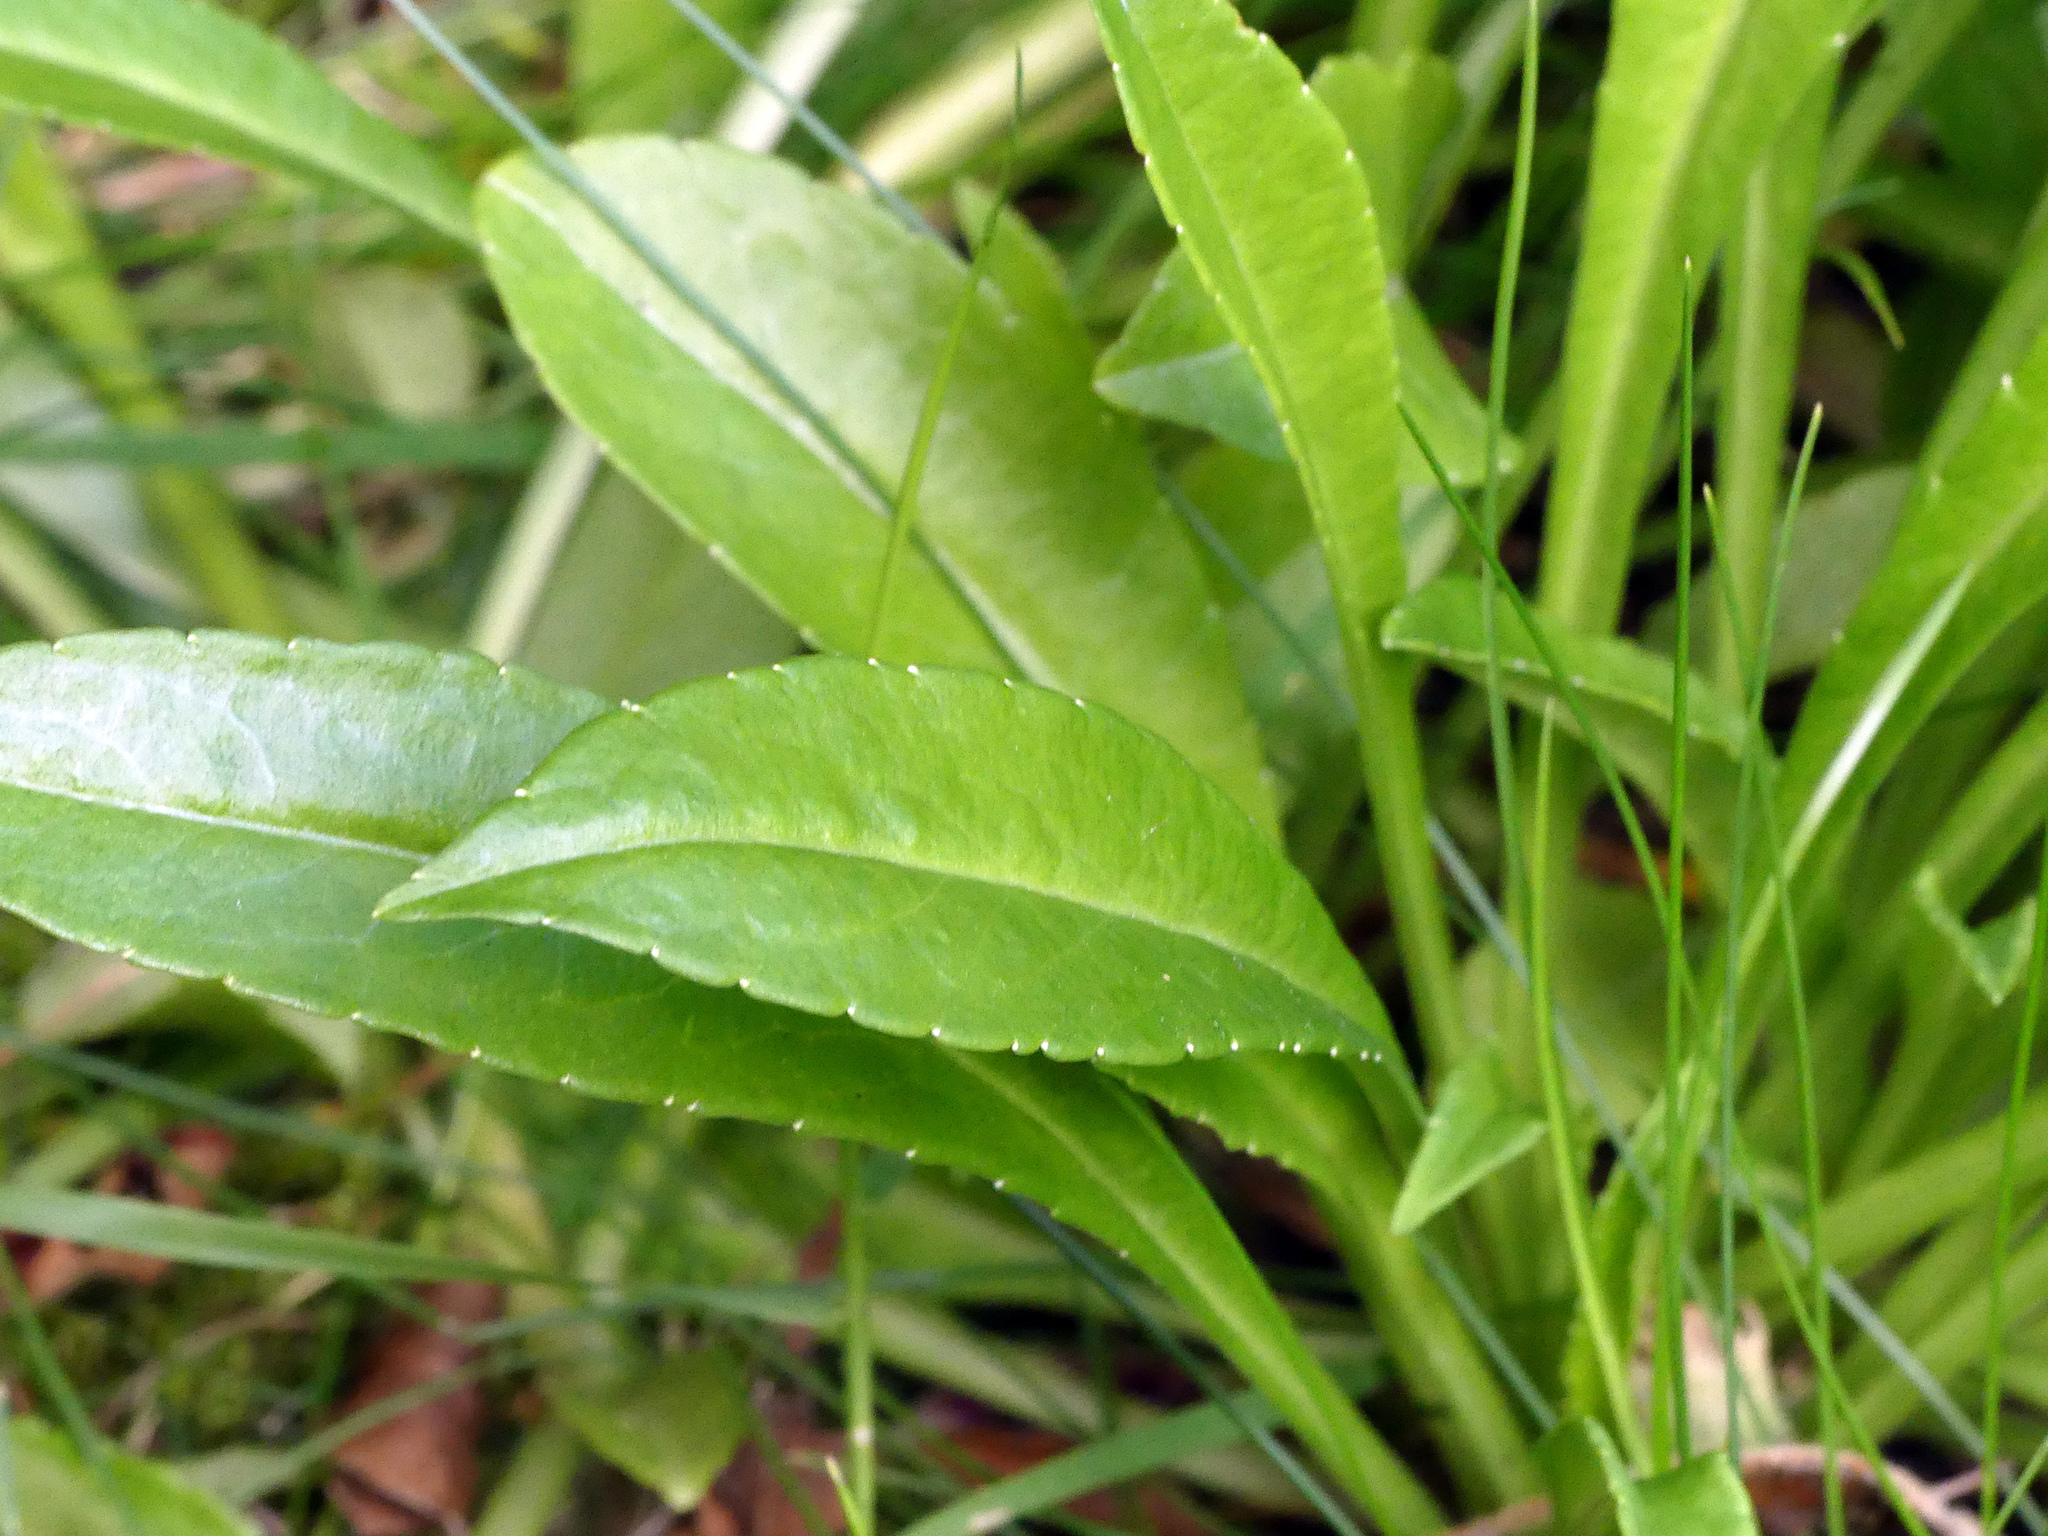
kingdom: Plantae
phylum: Tracheophyta
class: Magnoliopsida
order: Asterales
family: Campanulaceae
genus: Campanula
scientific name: Campanula persicifolia
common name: Peach-leaved bellflower
